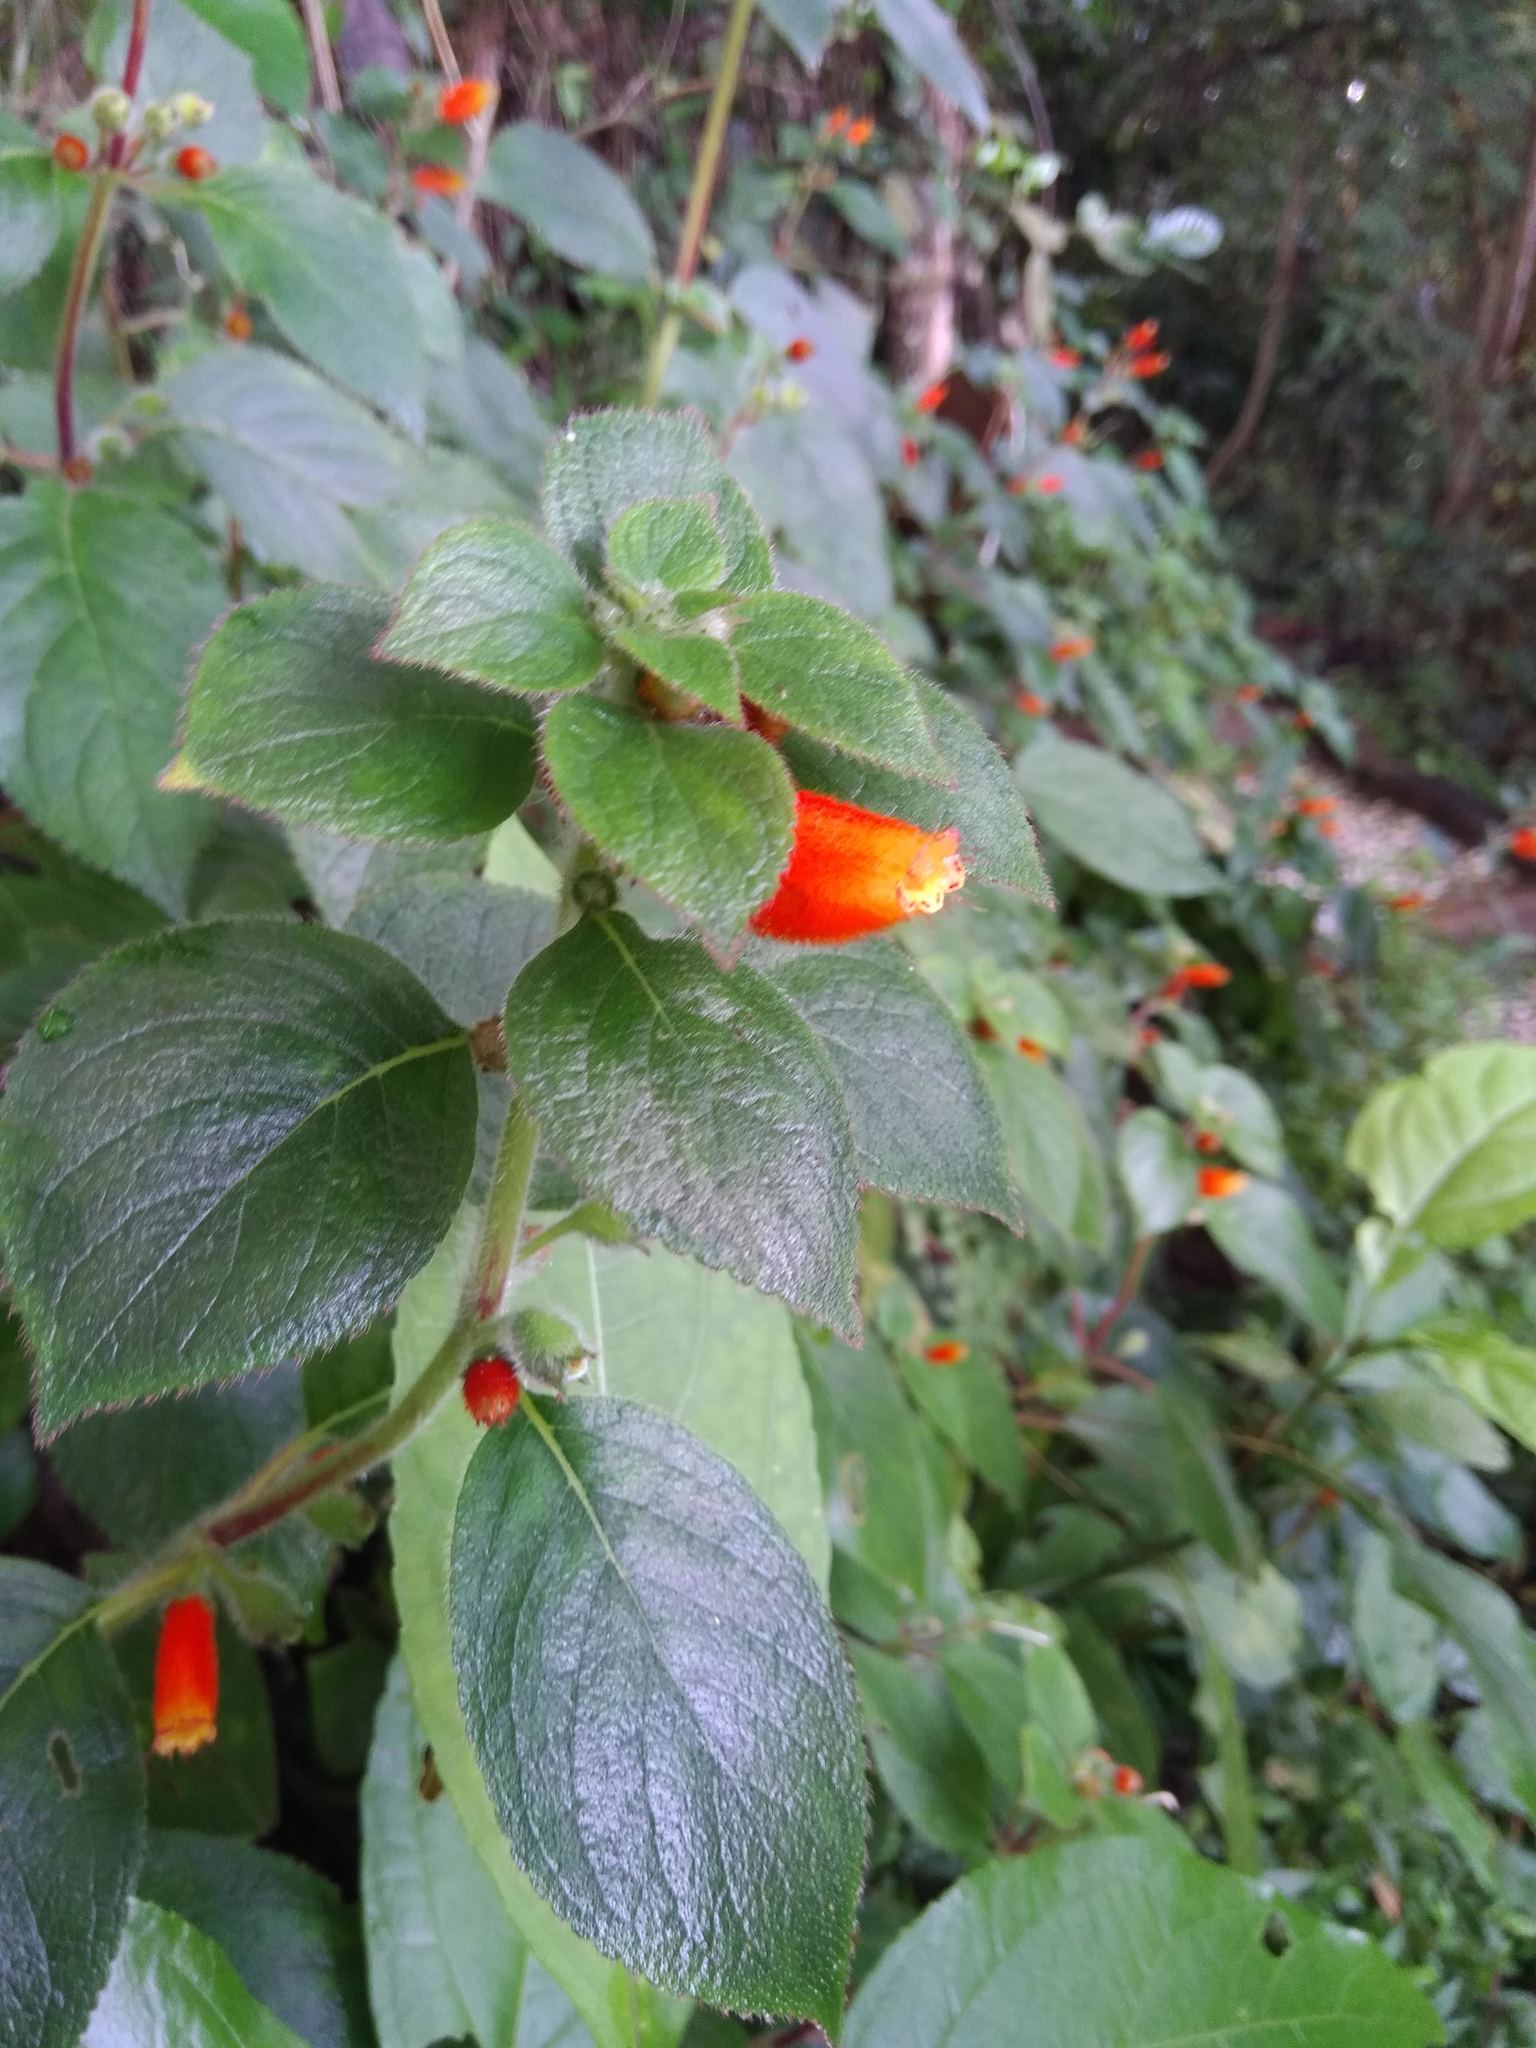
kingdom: Plantae
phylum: Tracheophyta
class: Magnoliopsida
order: Lamiales
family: Gesneriaceae
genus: Kohleria
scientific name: Kohleria tubiflora
